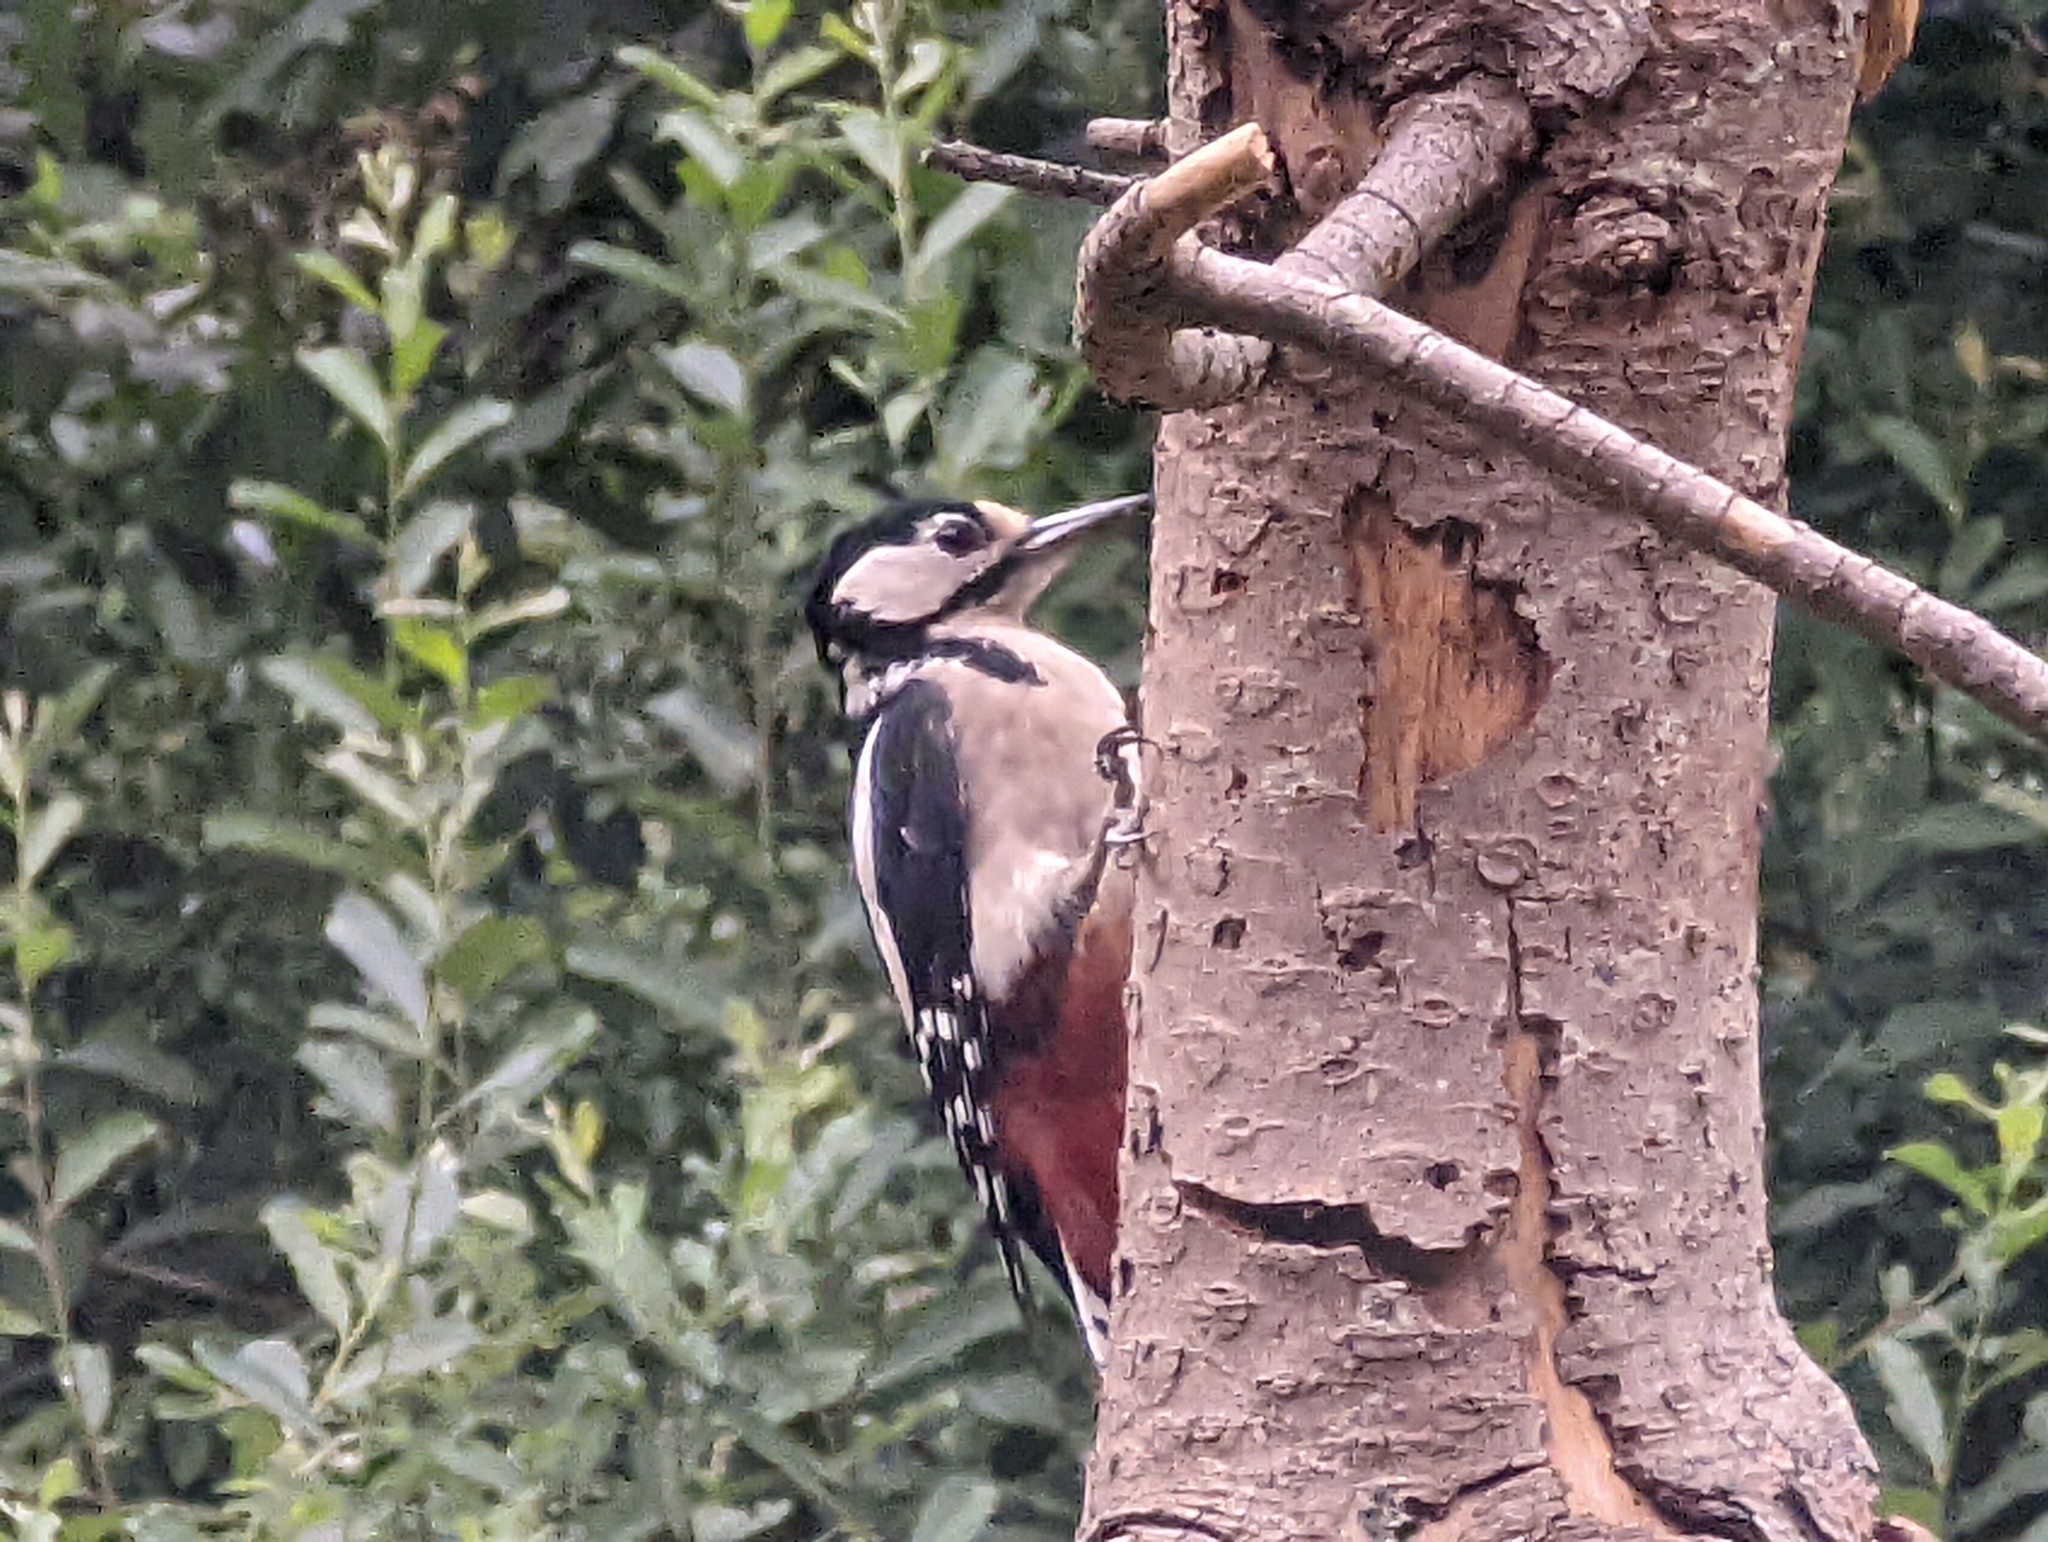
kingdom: Animalia
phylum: Chordata
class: Aves
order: Piciformes
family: Picidae
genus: Dendrocopos
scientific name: Dendrocopos major
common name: Great spotted woodpecker
